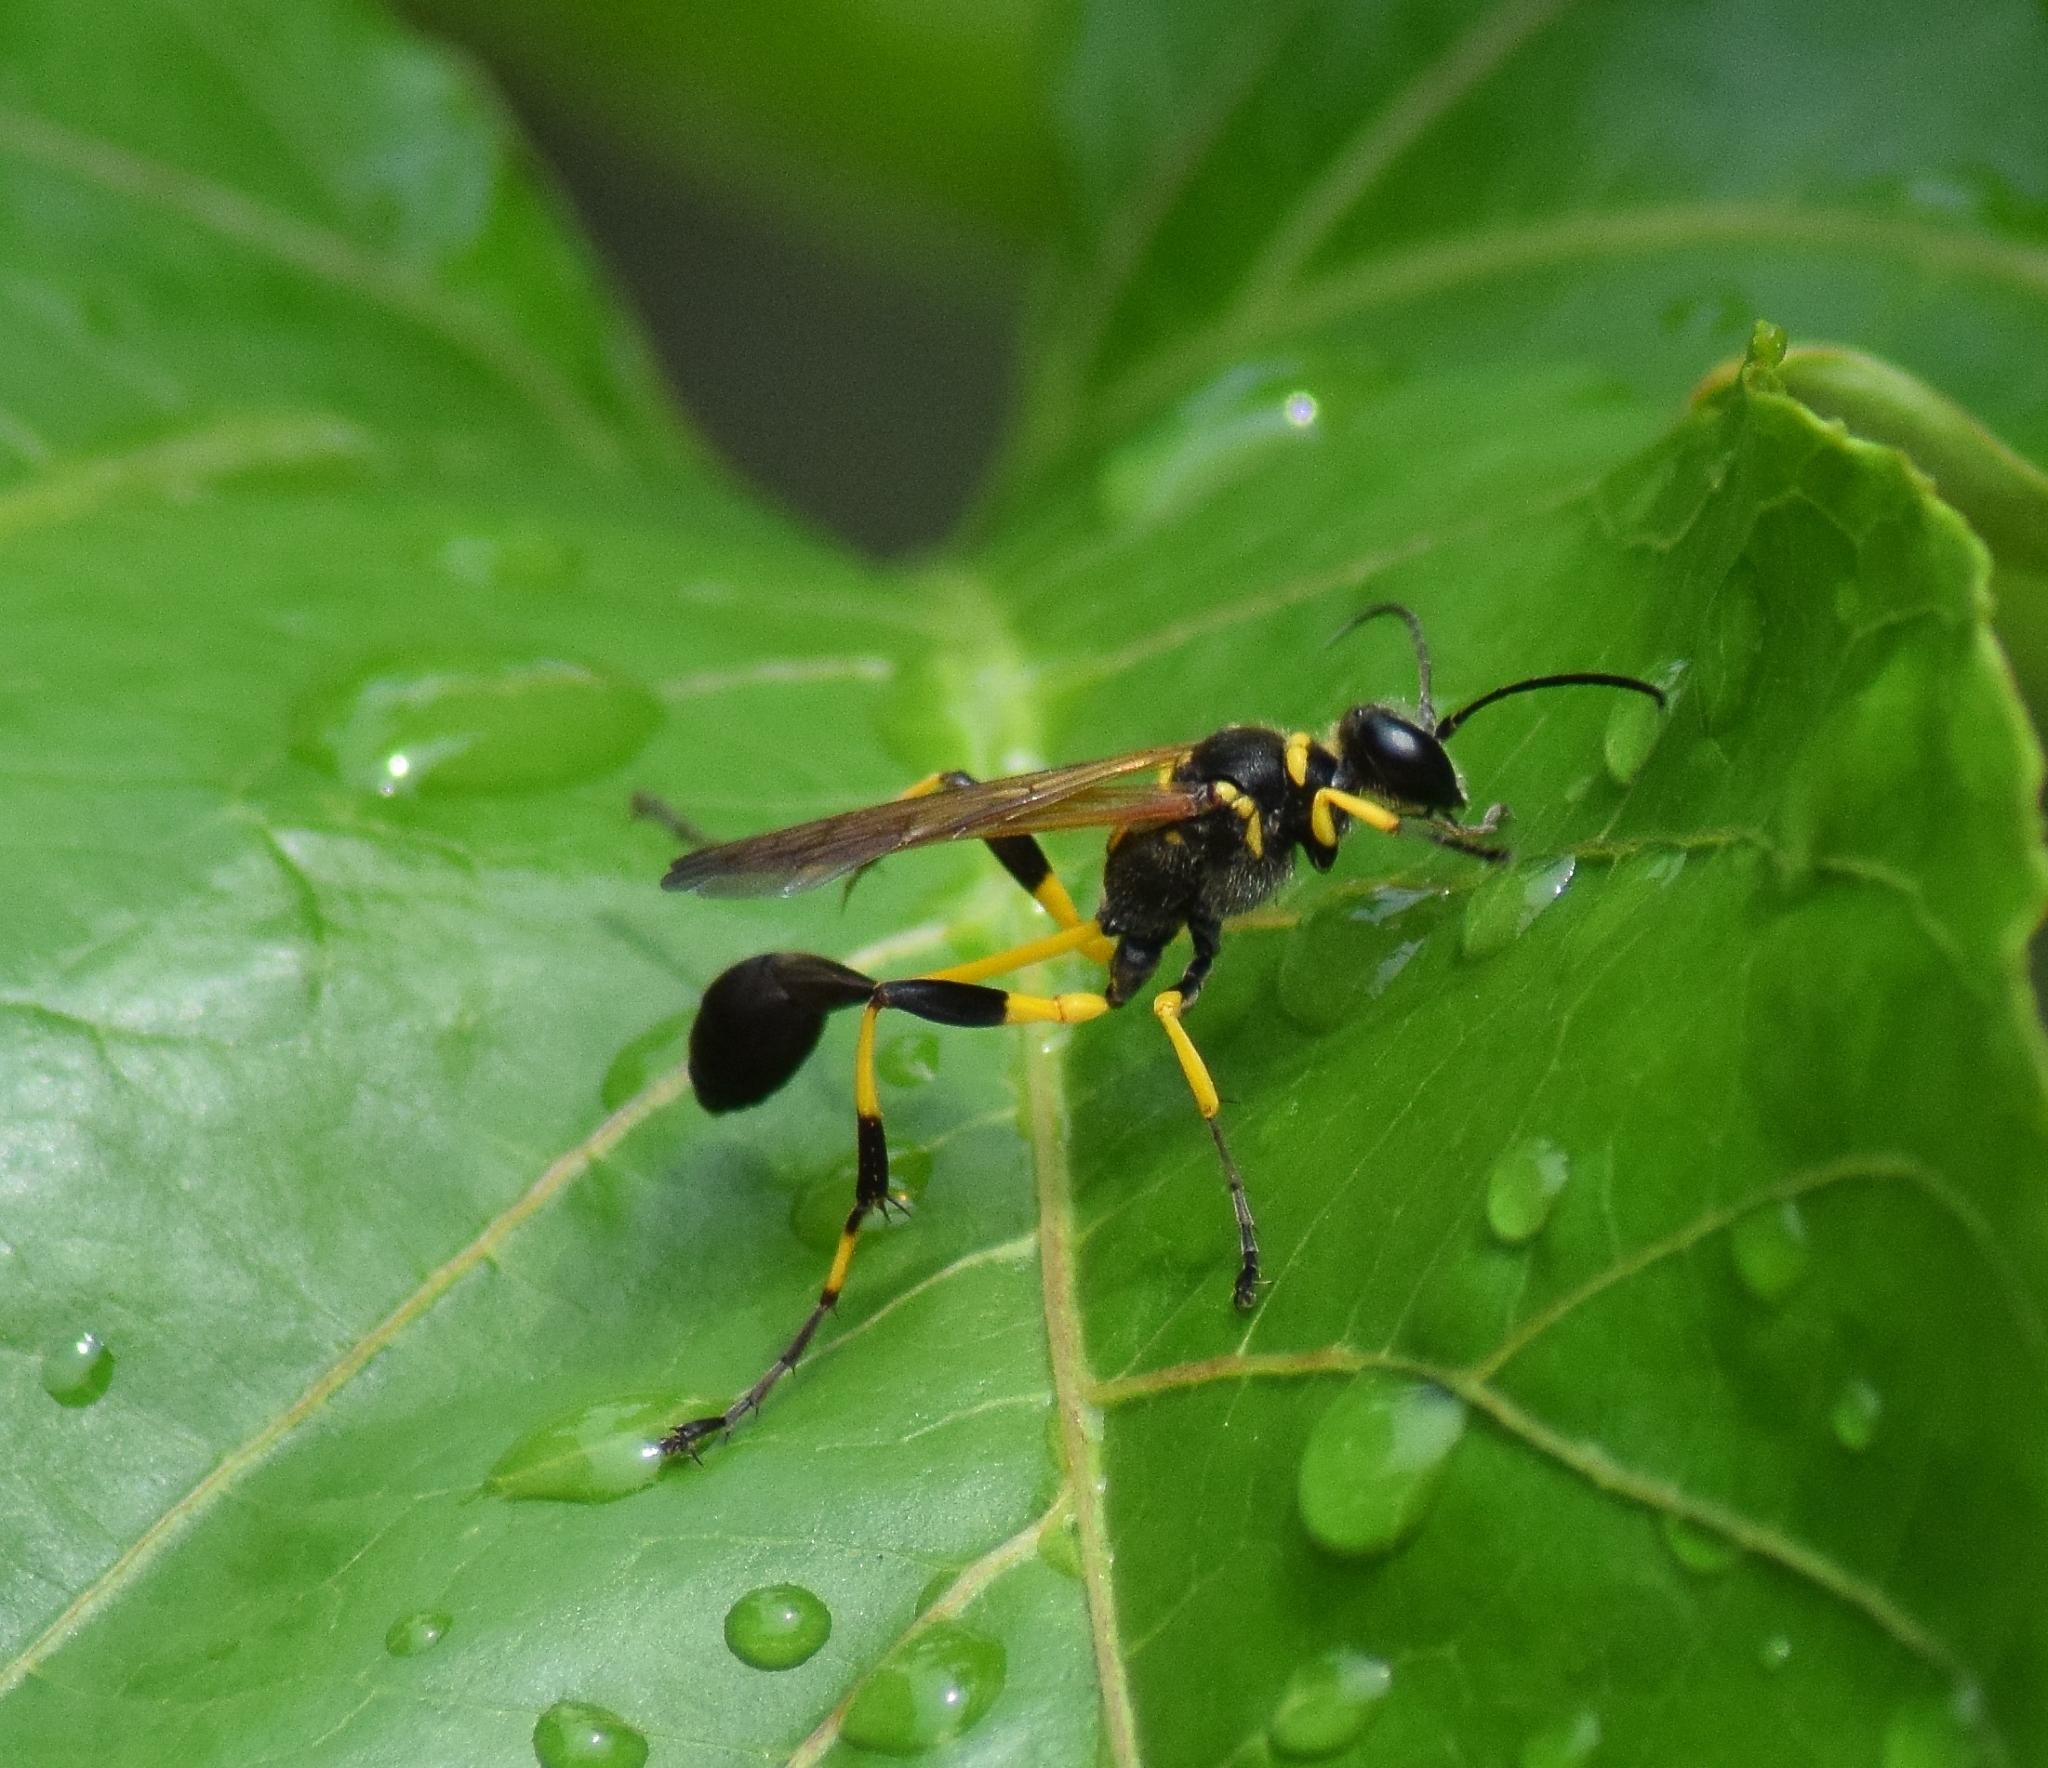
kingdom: Animalia
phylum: Arthropoda
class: Insecta
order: Hymenoptera
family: Sphecidae
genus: Sceliphron
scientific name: Sceliphron madraspatanum
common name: Mud dauber
